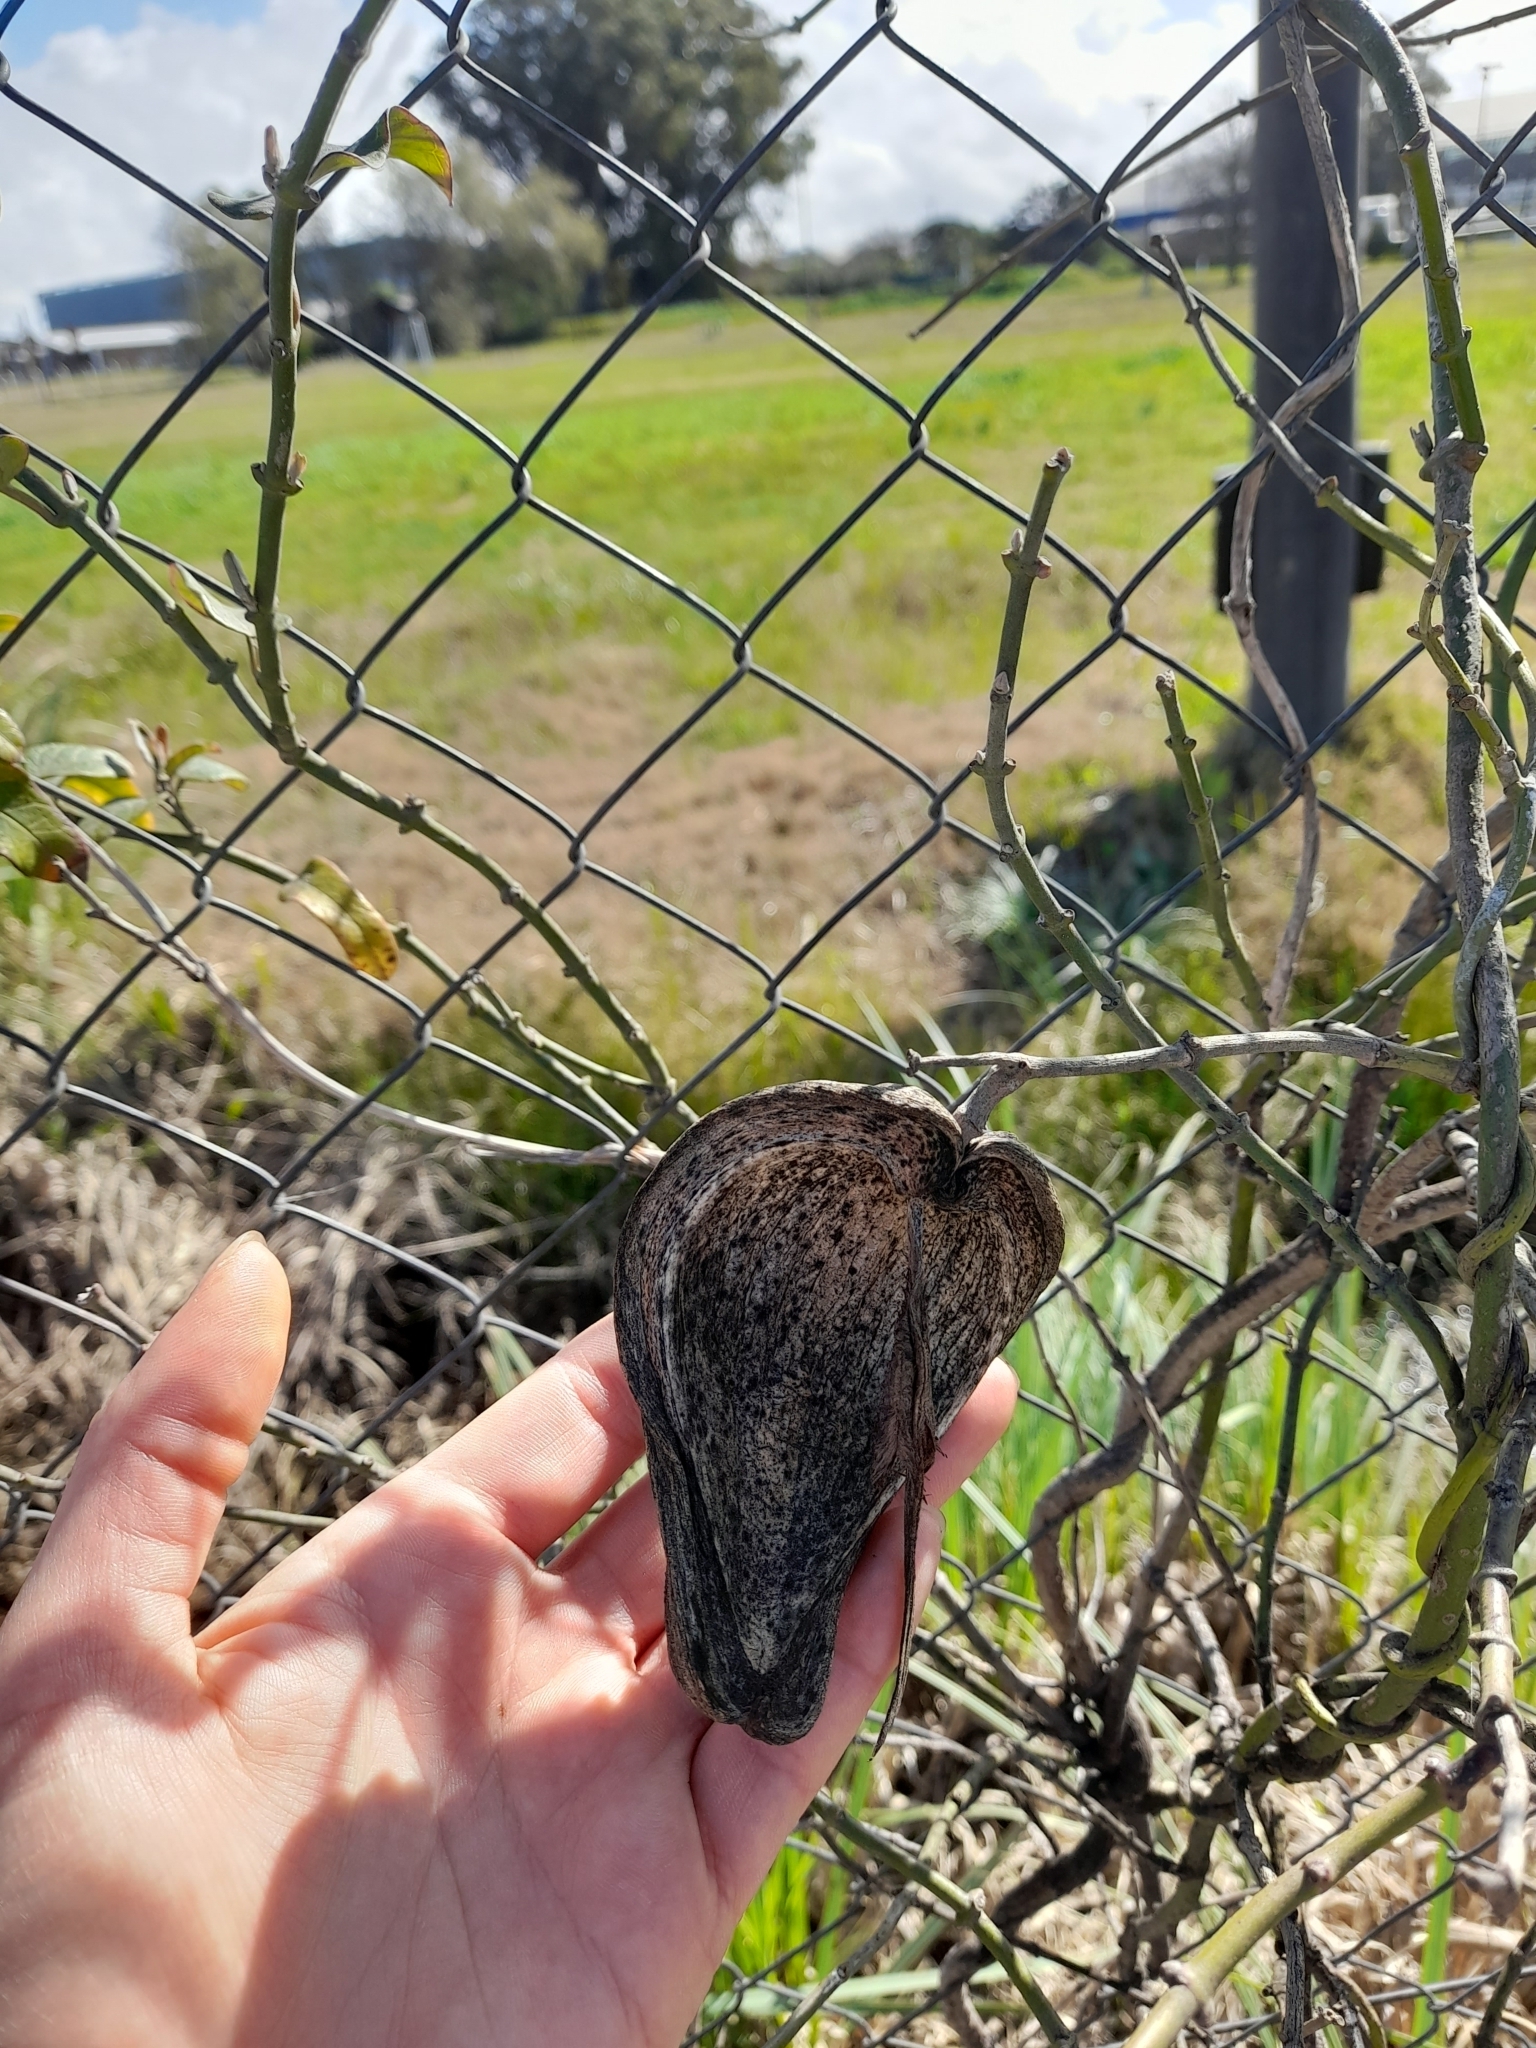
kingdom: Plantae
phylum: Tracheophyta
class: Magnoliopsida
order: Gentianales
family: Apocynaceae
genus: Araujia
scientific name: Araujia sericifera
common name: White bladderflower
